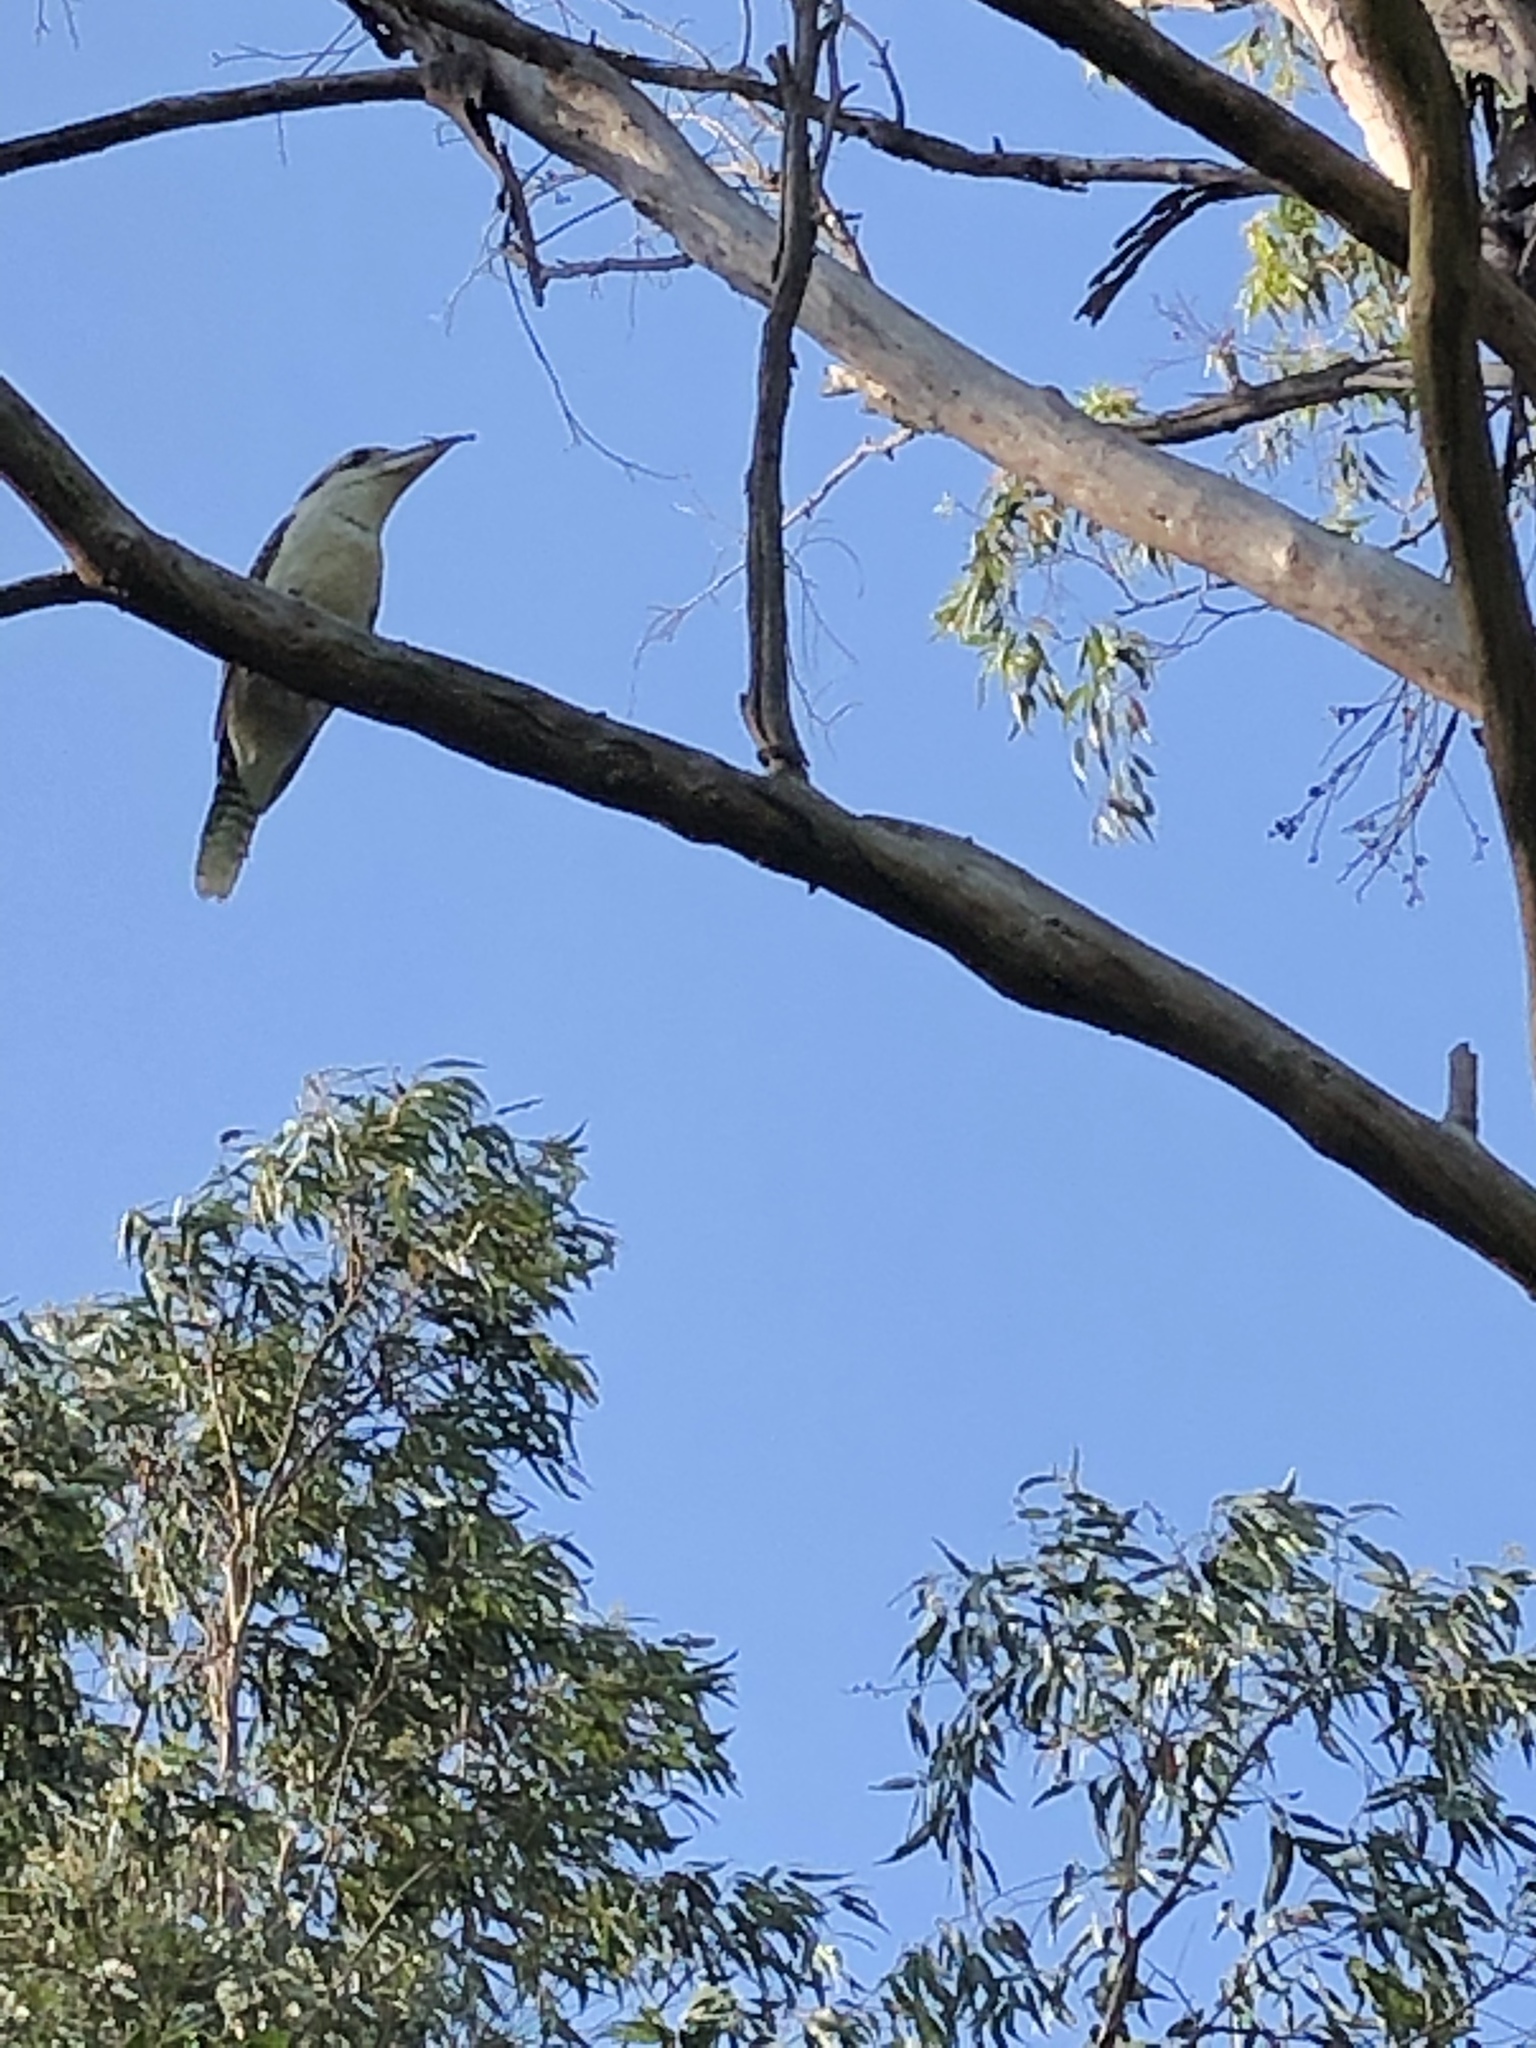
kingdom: Animalia
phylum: Chordata
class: Aves
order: Coraciiformes
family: Alcedinidae
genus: Dacelo
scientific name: Dacelo novaeguineae
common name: Laughing kookaburra
